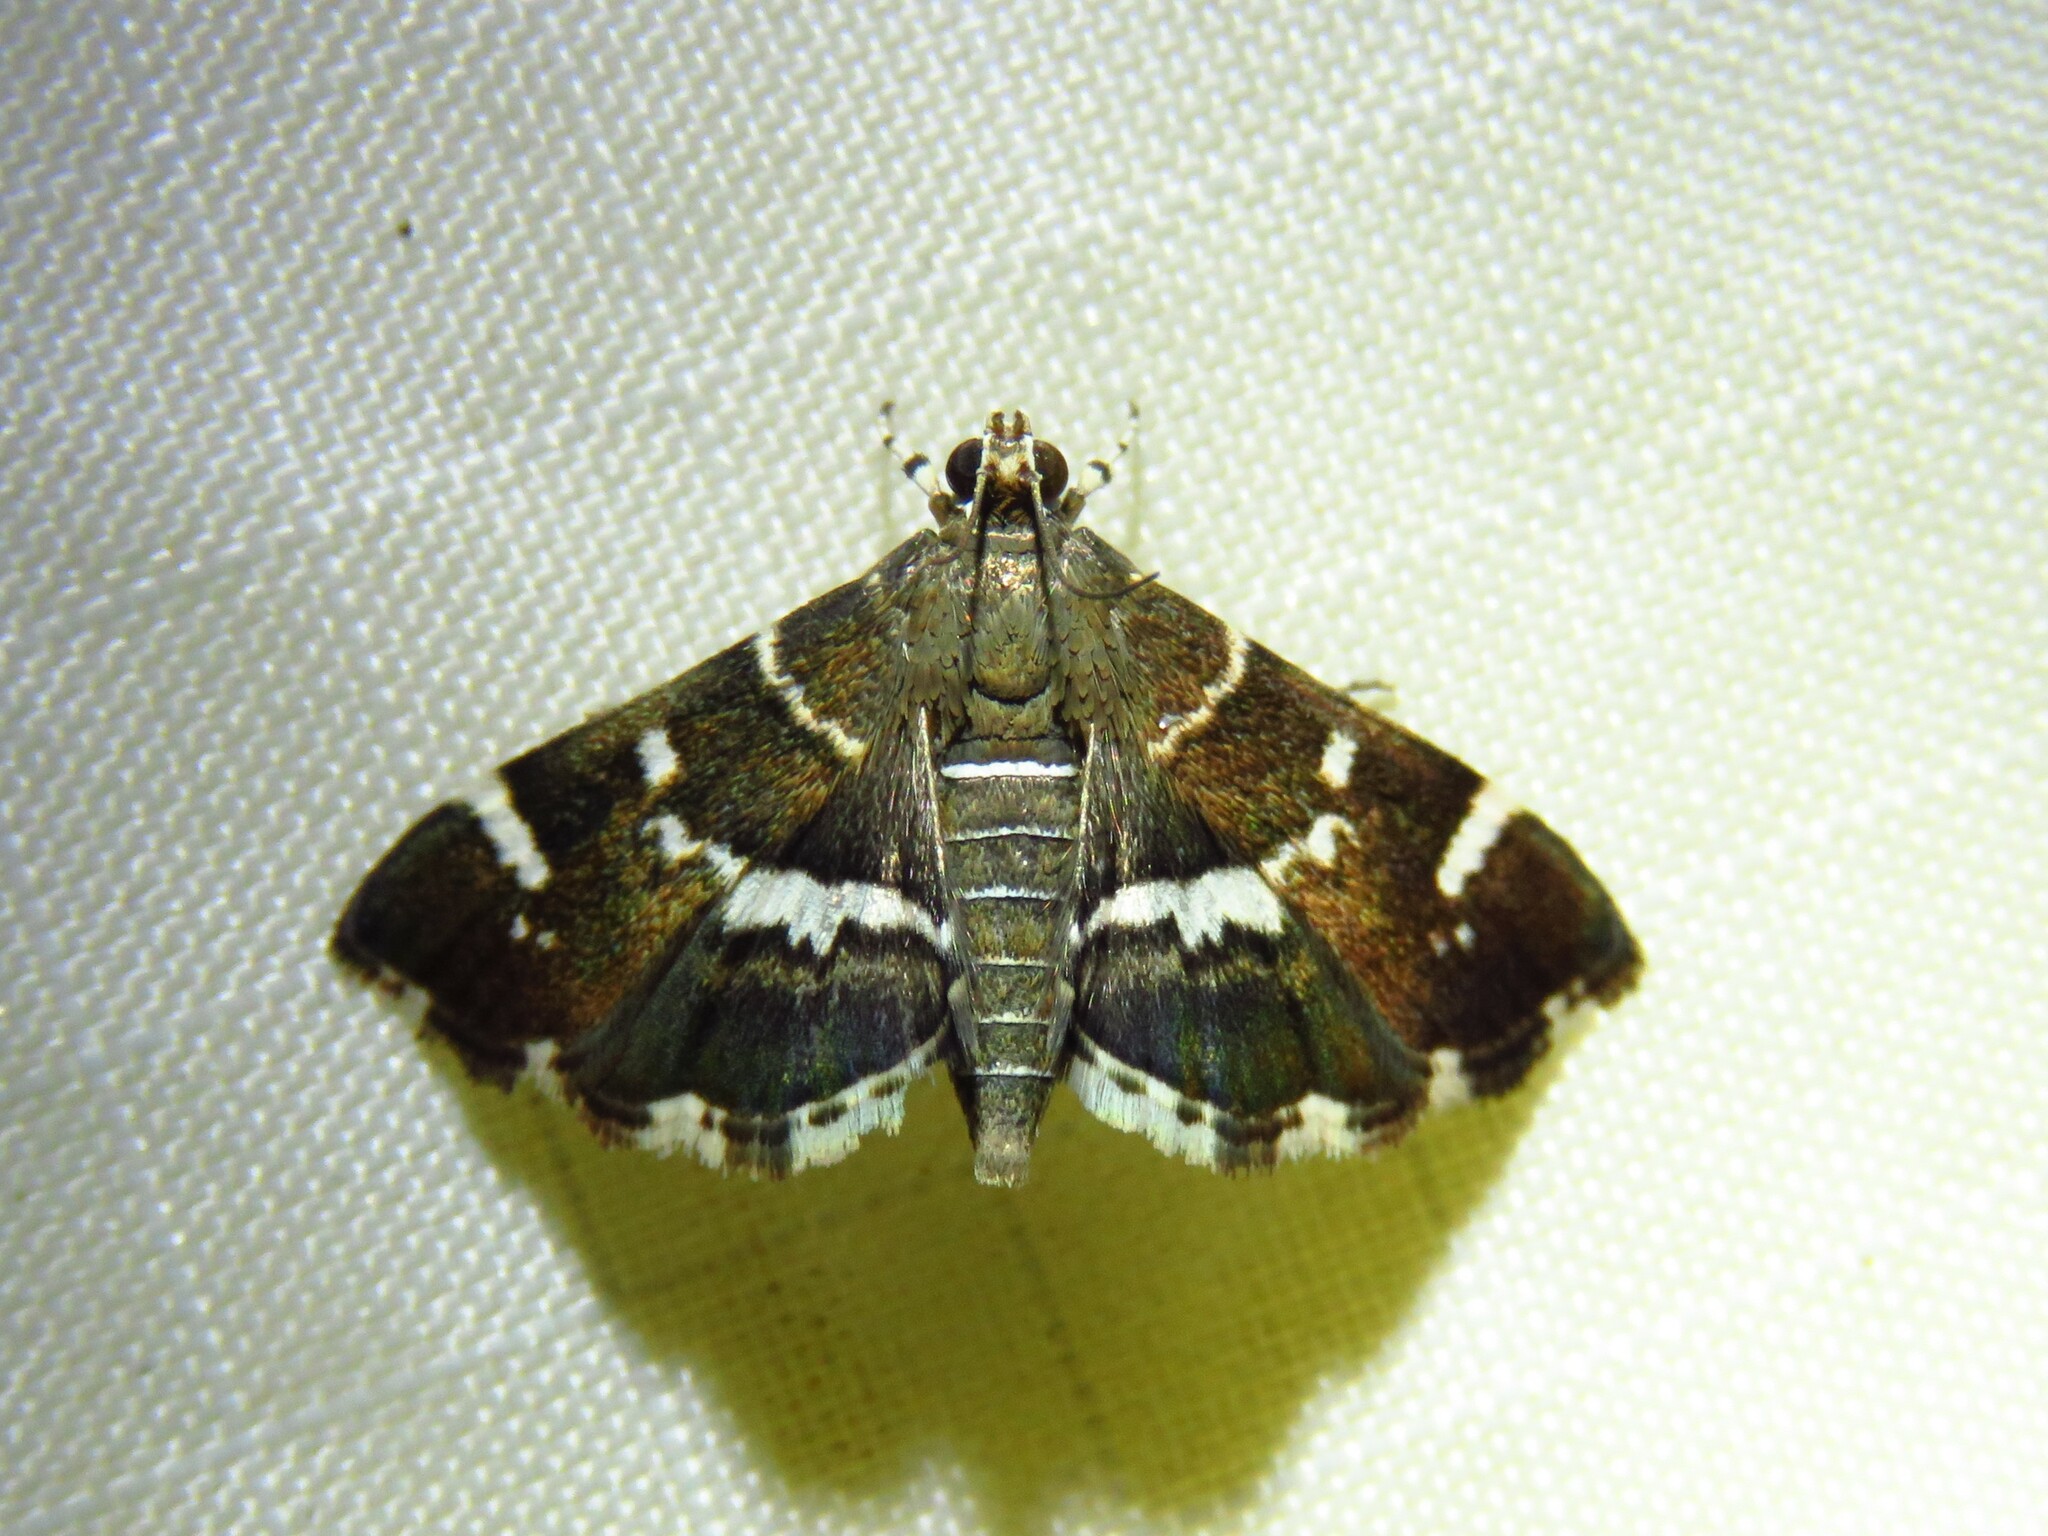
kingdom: Animalia
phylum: Arthropoda
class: Insecta
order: Lepidoptera
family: Crambidae
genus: Hymenia
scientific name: Hymenia perspectalis
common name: Spotted beet webworm
